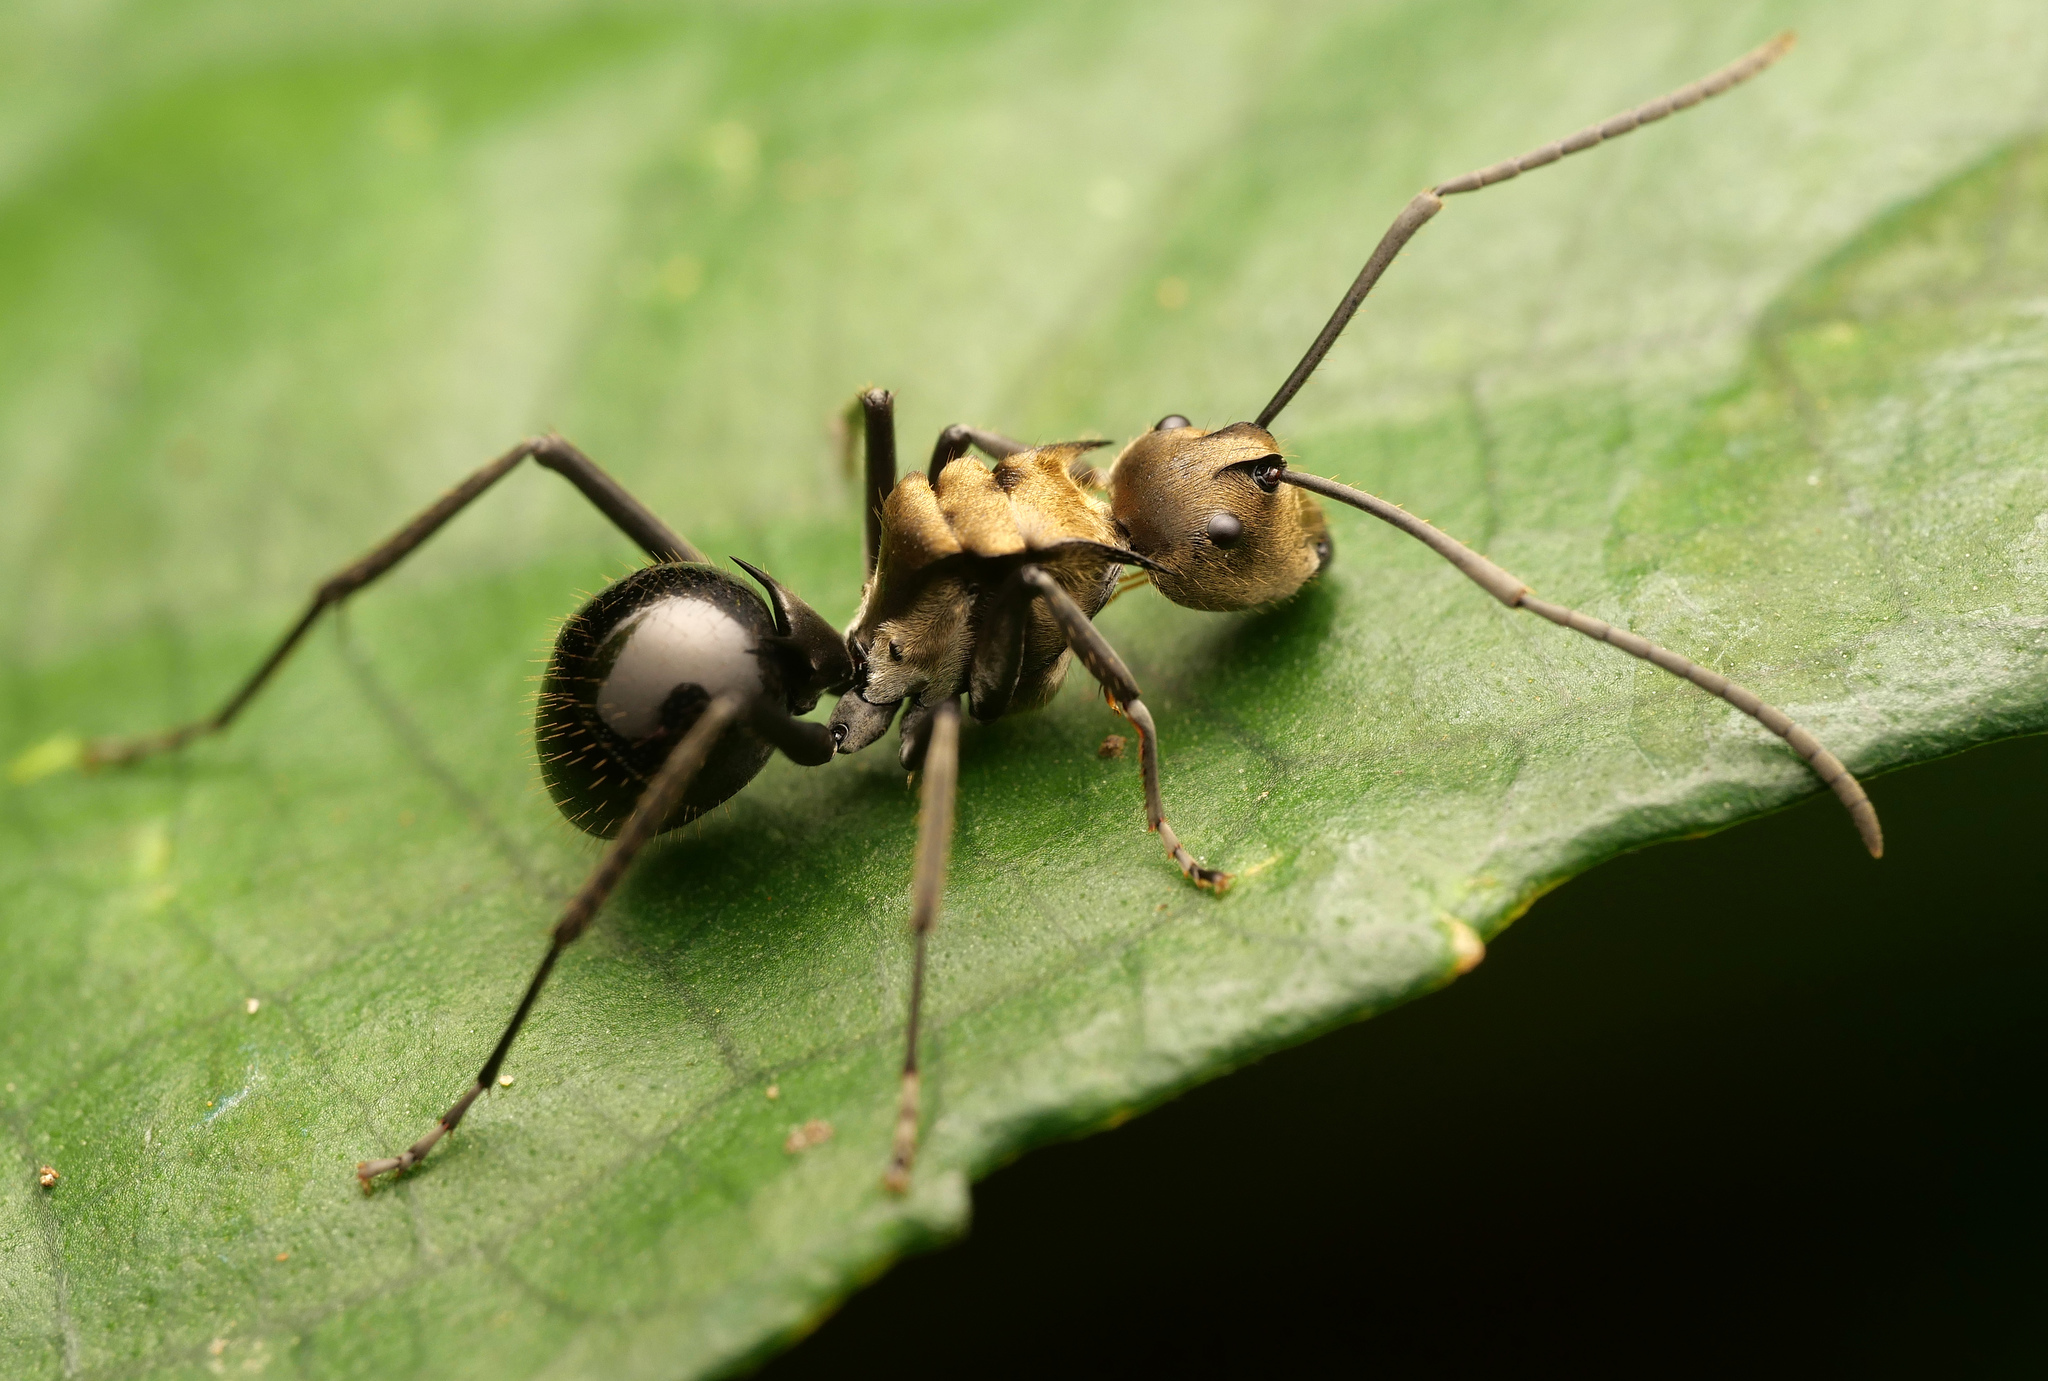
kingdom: Animalia
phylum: Arthropoda
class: Insecta
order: Hymenoptera
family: Formicidae
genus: Polyrhachis
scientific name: Polyrhachis sericata
